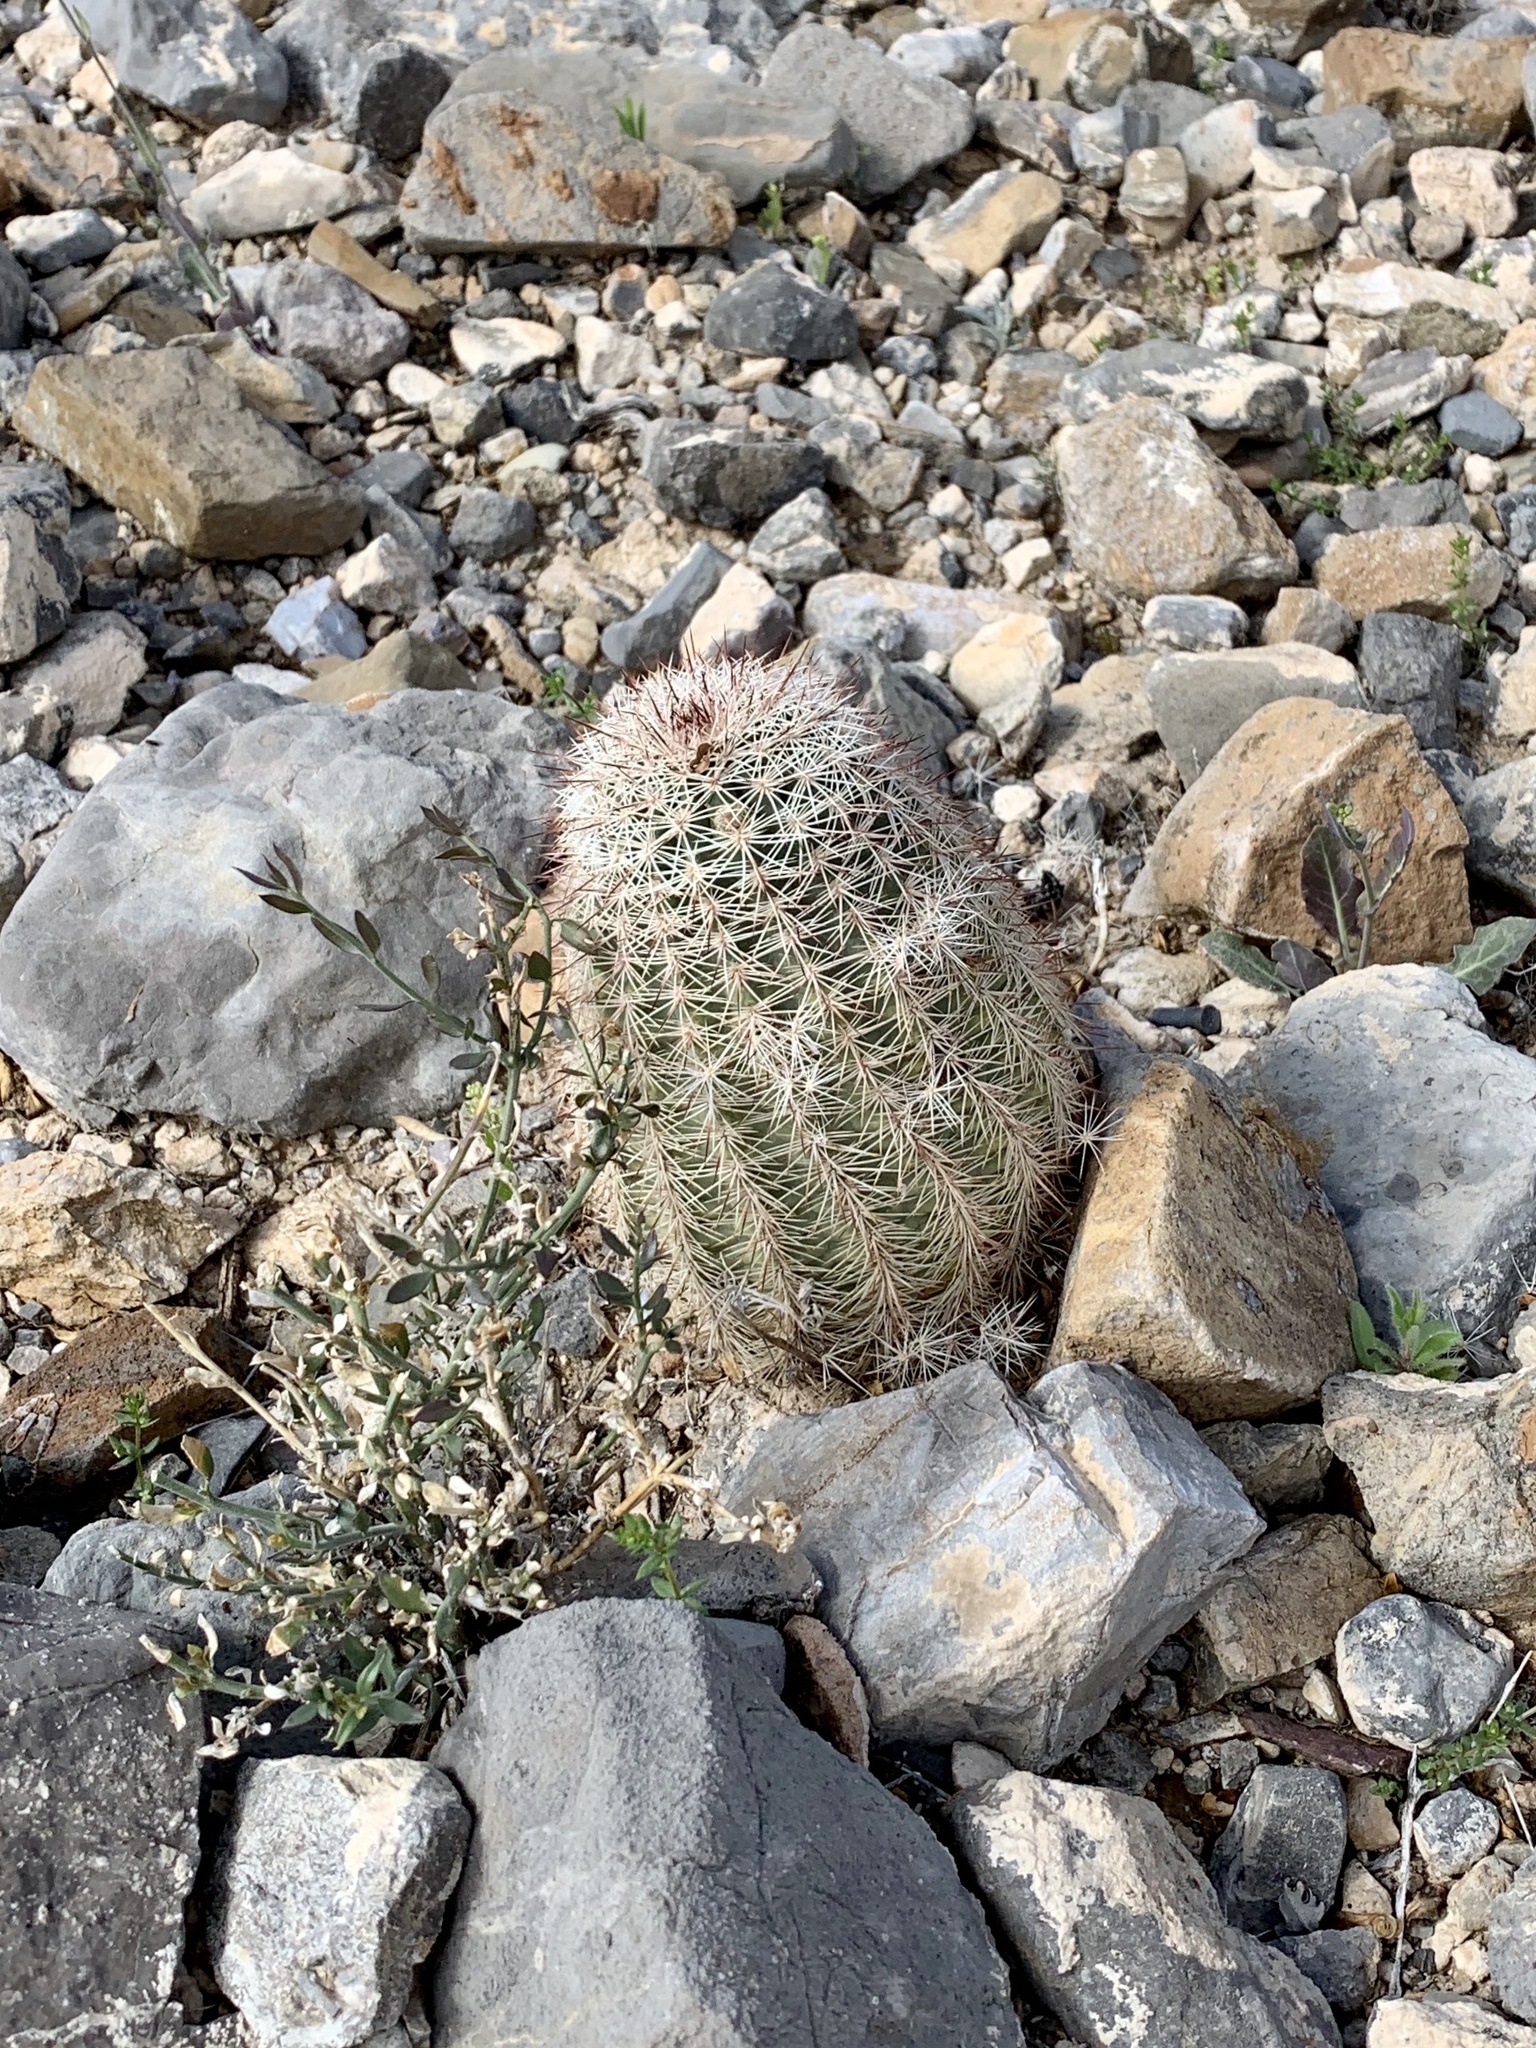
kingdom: Plantae
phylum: Tracheophyta
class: Magnoliopsida
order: Caryophyllales
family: Cactaceae
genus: Echinocereus
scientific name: Echinocereus dasyacanthus
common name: Spiny hedgehog cactus
